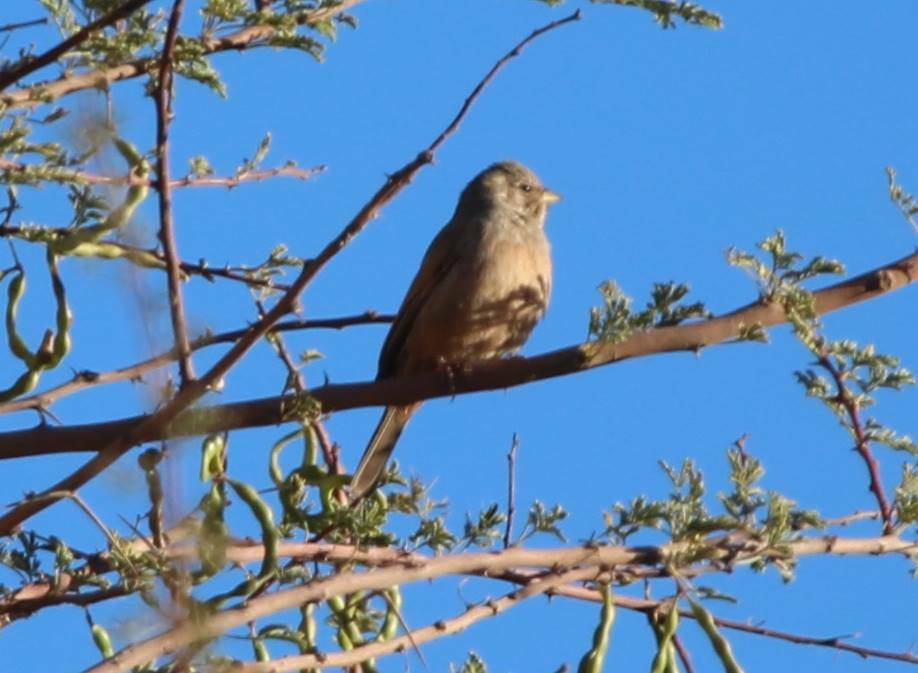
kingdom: Animalia
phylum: Chordata
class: Aves
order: Passeriformes
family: Emberizidae
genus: Emberiza
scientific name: Emberiza sahari
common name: House bunting
